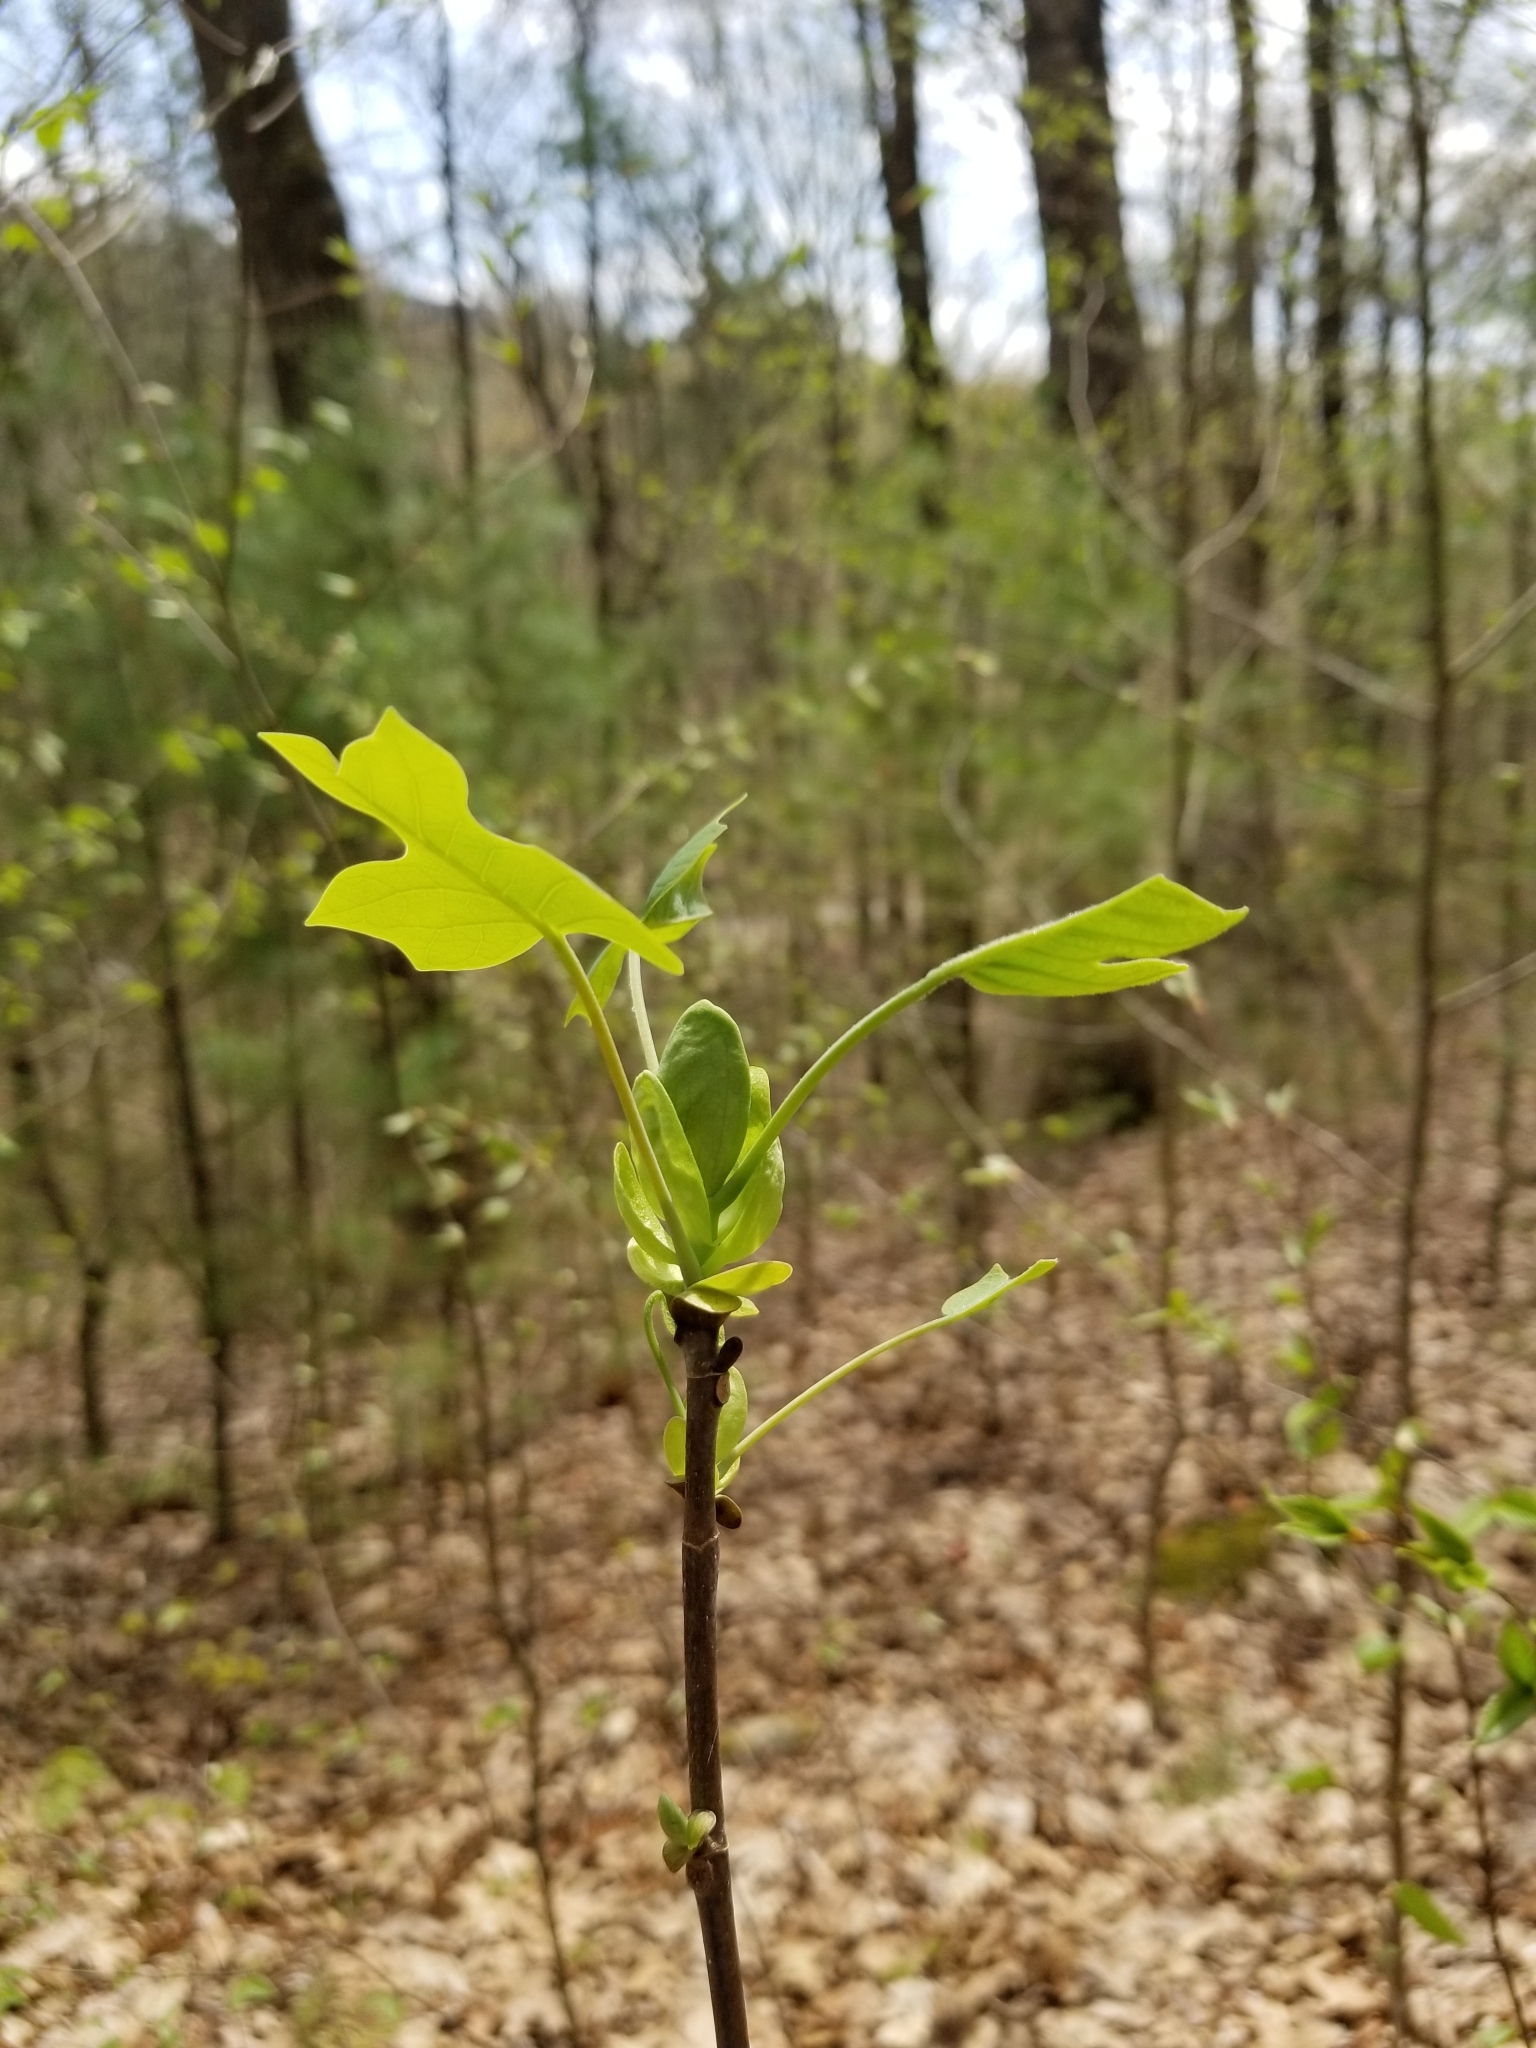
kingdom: Plantae
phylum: Tracheophyta
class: Magnoliopsida
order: Magnoliales
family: Magnoliaceae
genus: Liriodendron
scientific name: Liriodendron tulipifera
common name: Tulip tree
